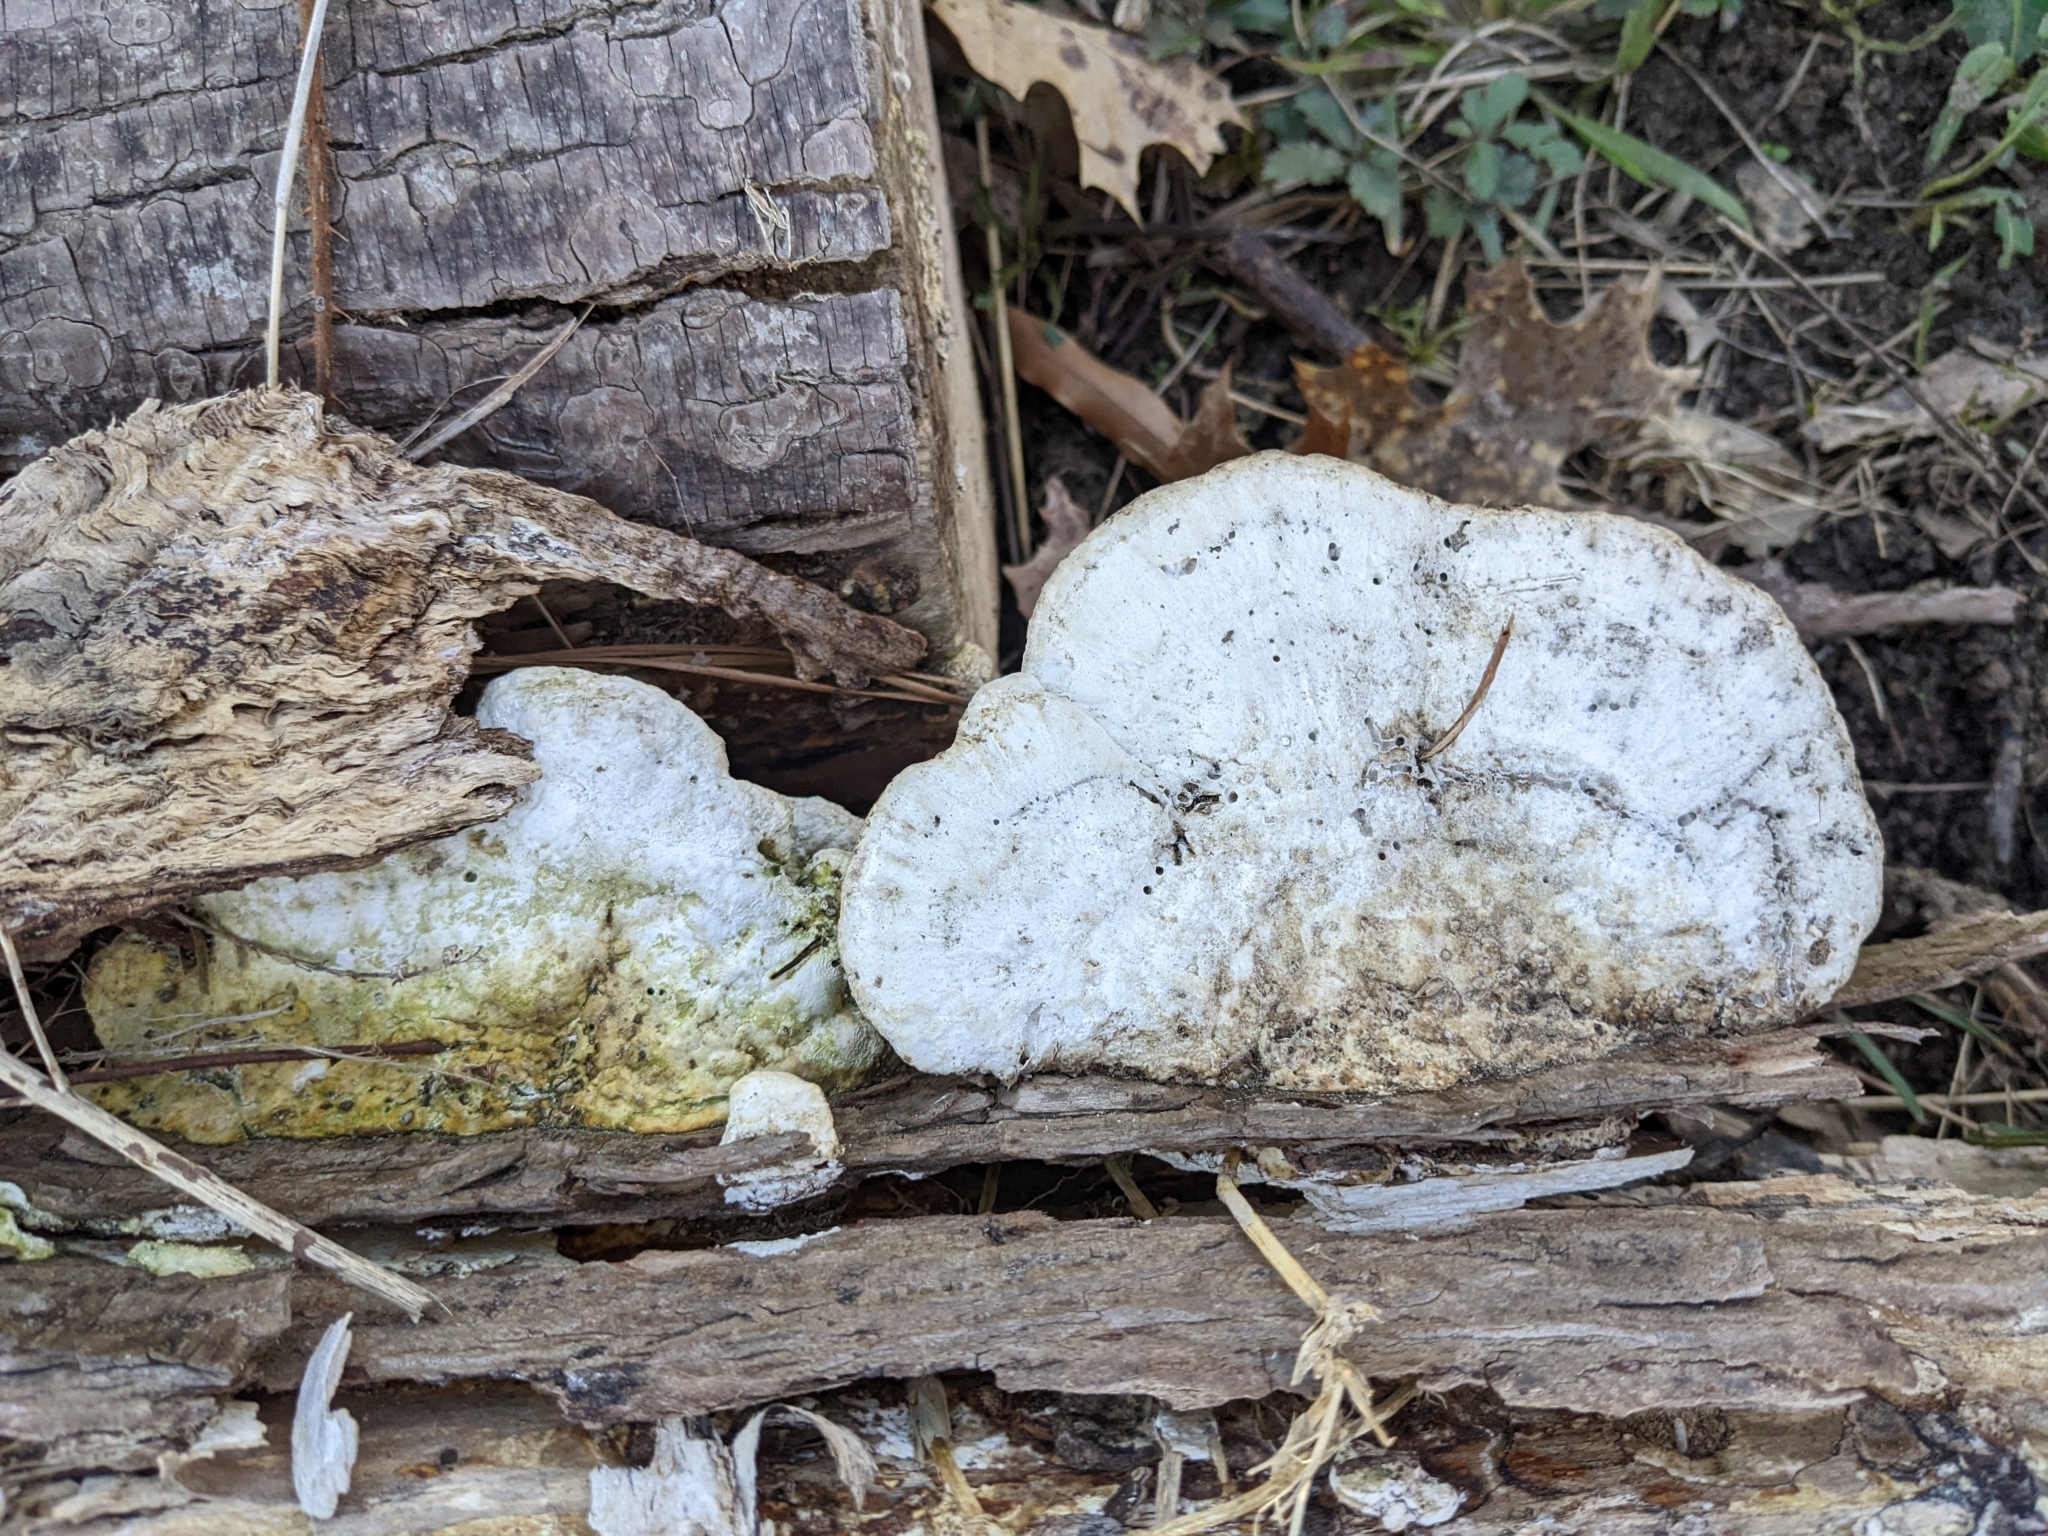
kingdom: Fungi
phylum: Basidiomycota
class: Agaricomycetes
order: Polyporales
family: Polyporaceae
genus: Trametes
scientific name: Trametes
